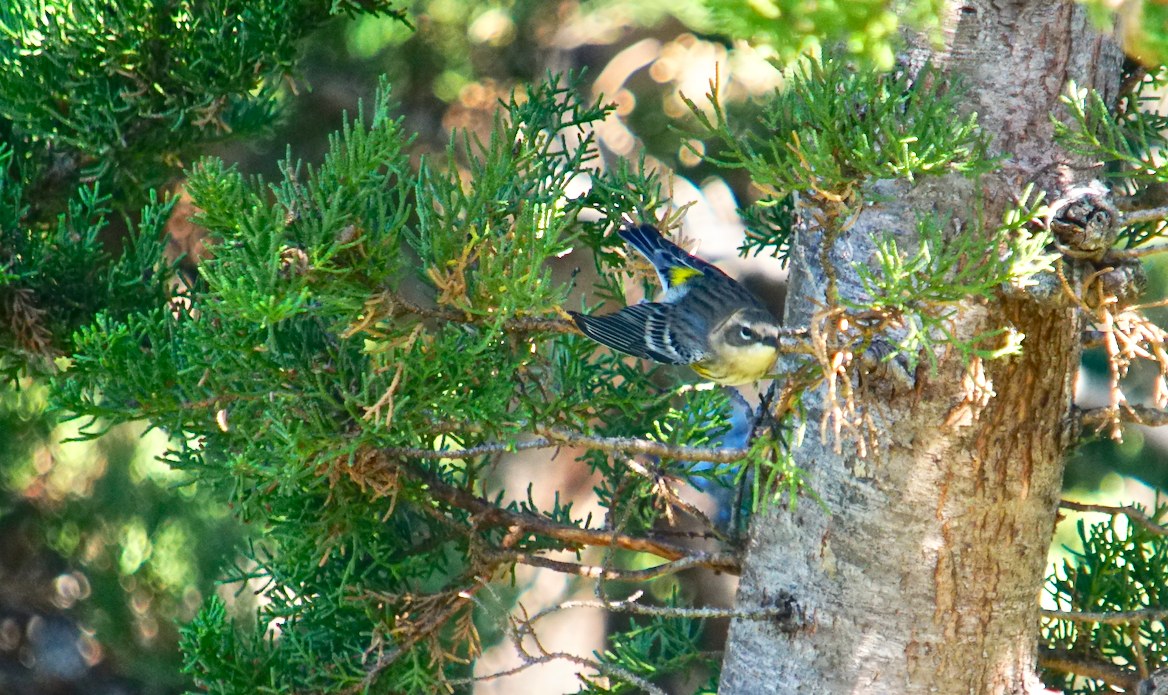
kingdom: Animalia
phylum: Chordata
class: Aves
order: Passeriformes
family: Parulidae
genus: Setophaga
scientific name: Setophaga coronata
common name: Myrtle warbler
